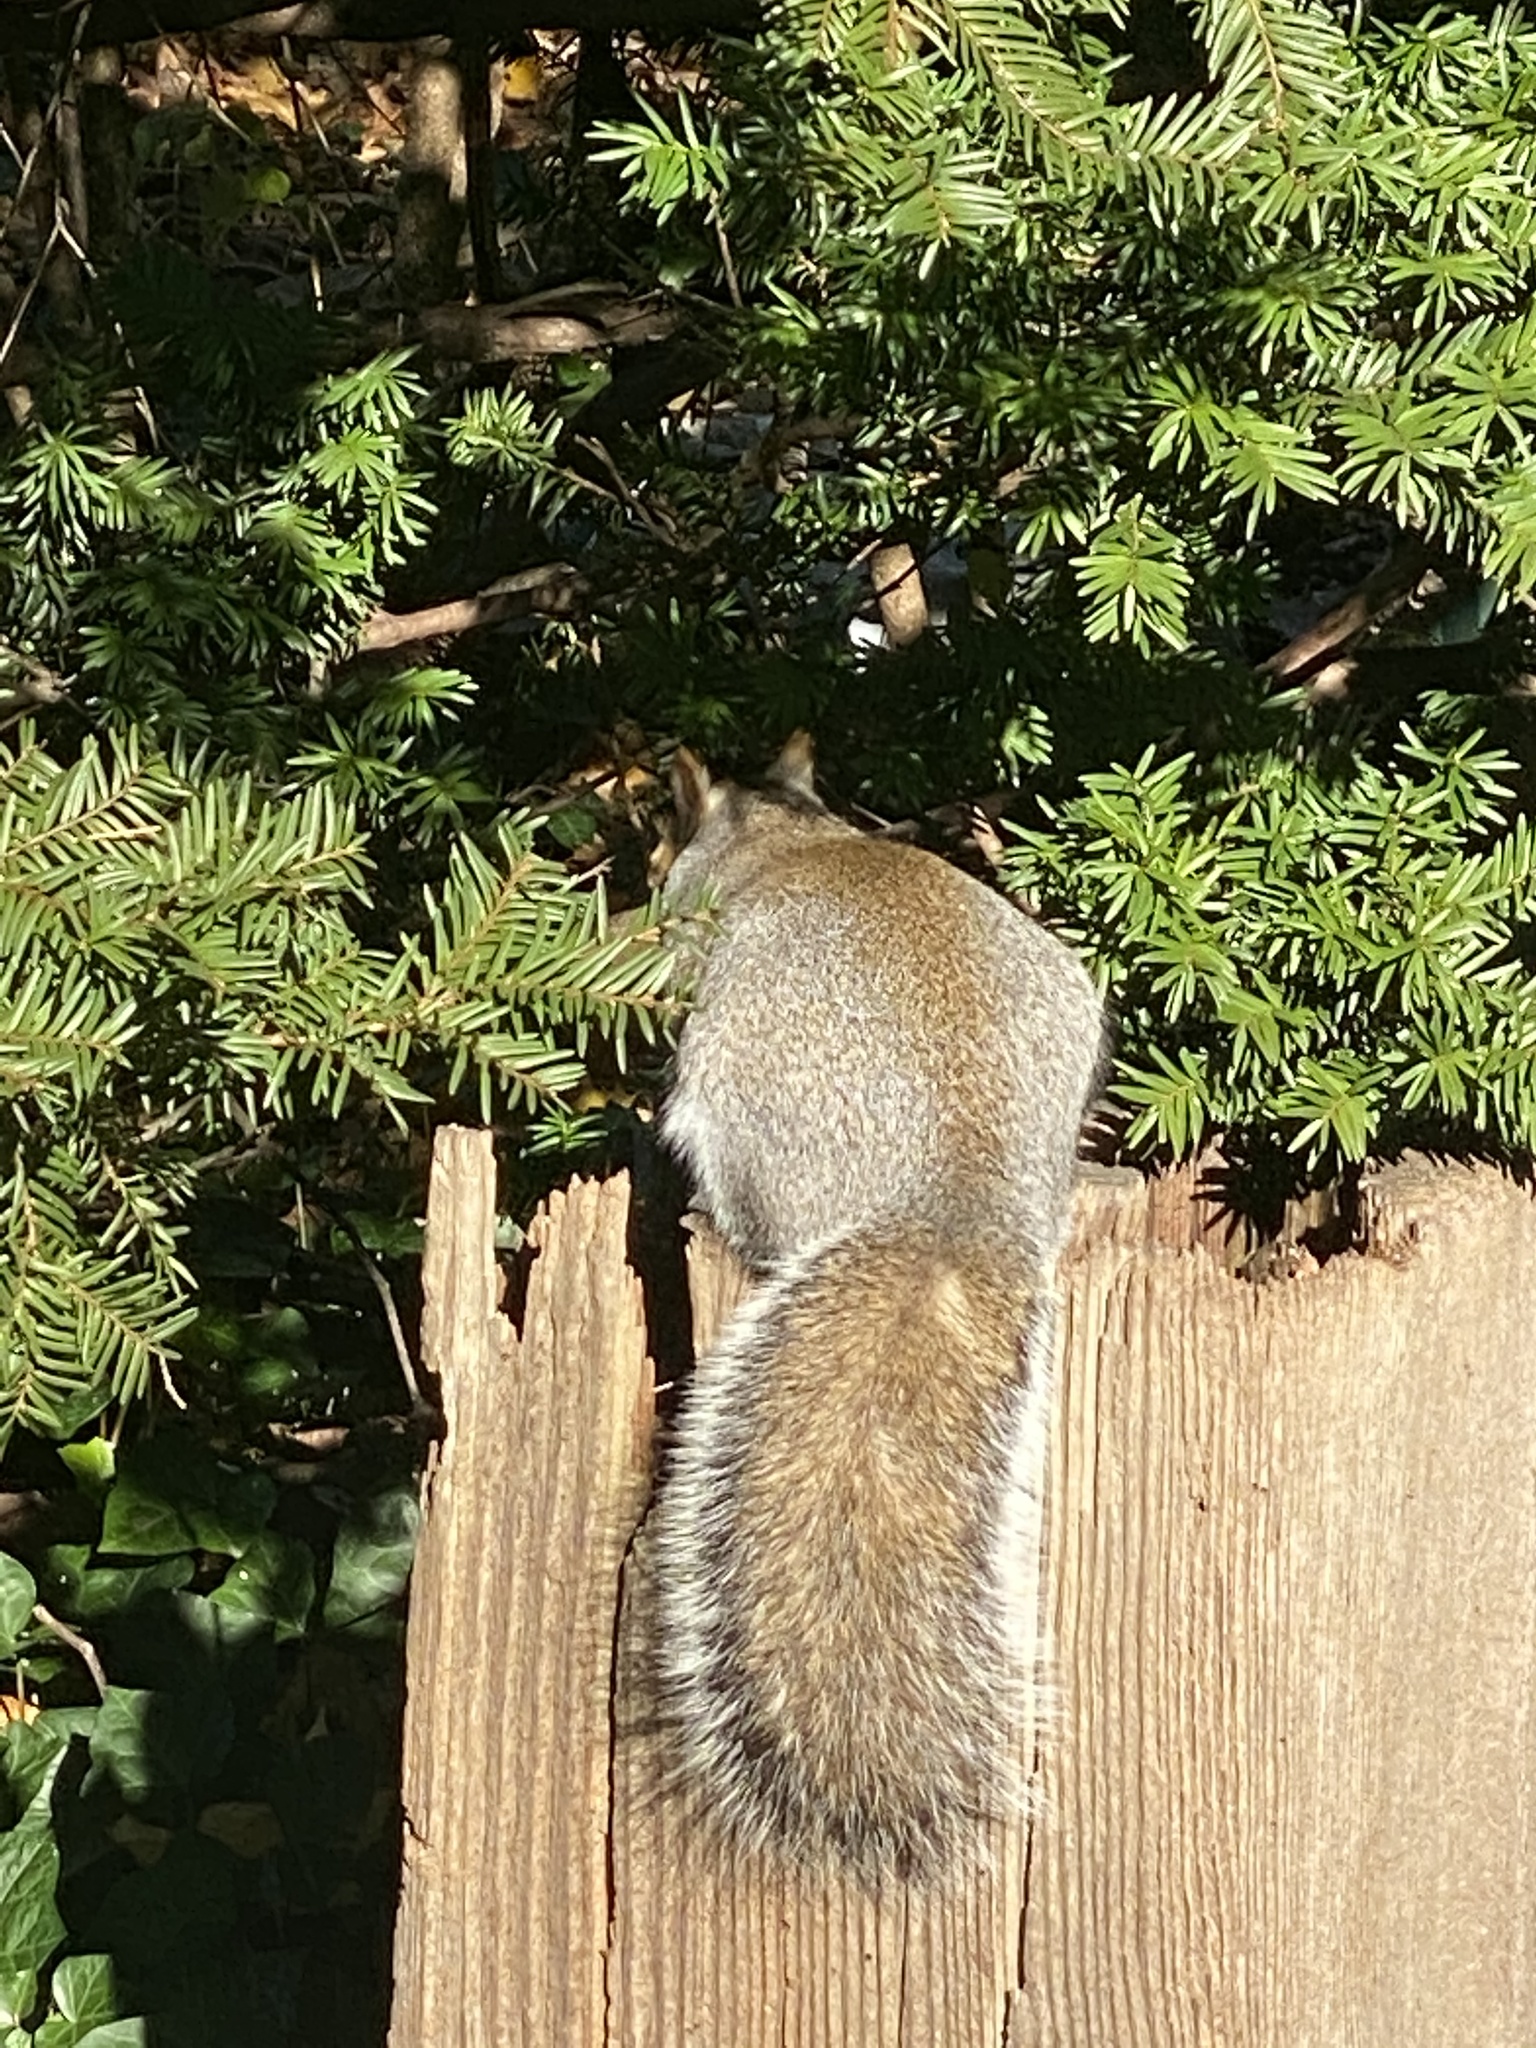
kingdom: Animalia
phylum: Chordata
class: Mammalia
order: Rodentia
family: Sciuridae
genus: Sciurus
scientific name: Sciurus carolinensis
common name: Eastern gray squirrel
